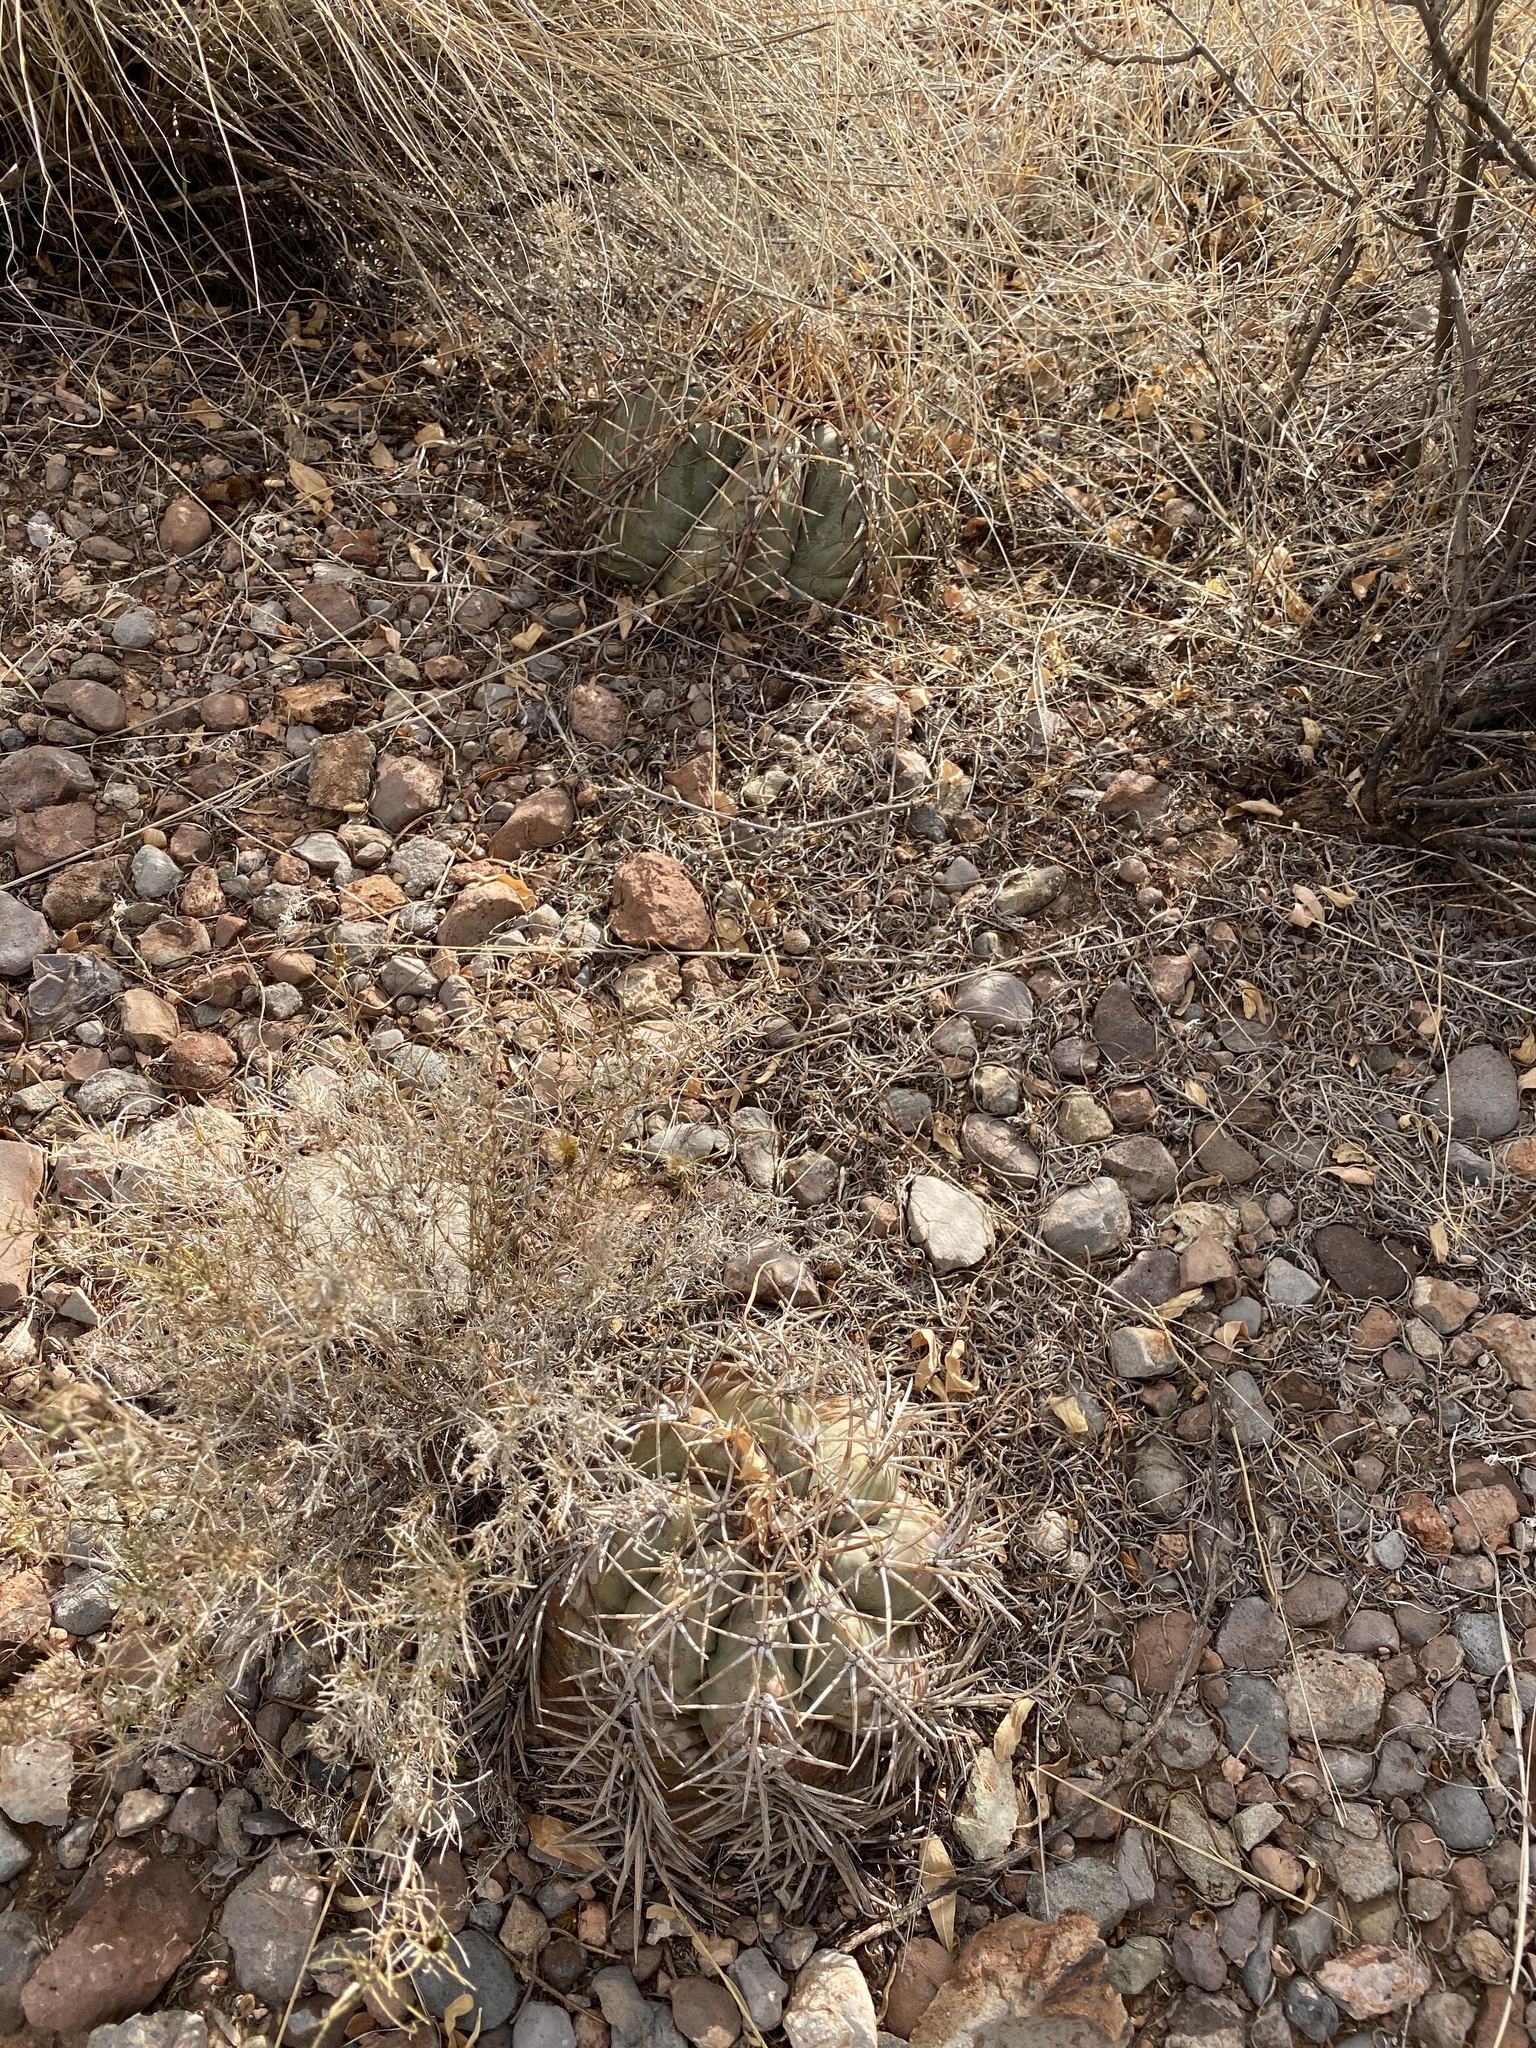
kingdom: Plantae
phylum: Tracheophyta
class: Magnoliopsida
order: Caryophyllales
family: Cactaceae
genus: Echinocactus
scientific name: Echinocactus horizonthalonius
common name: Devilshead
